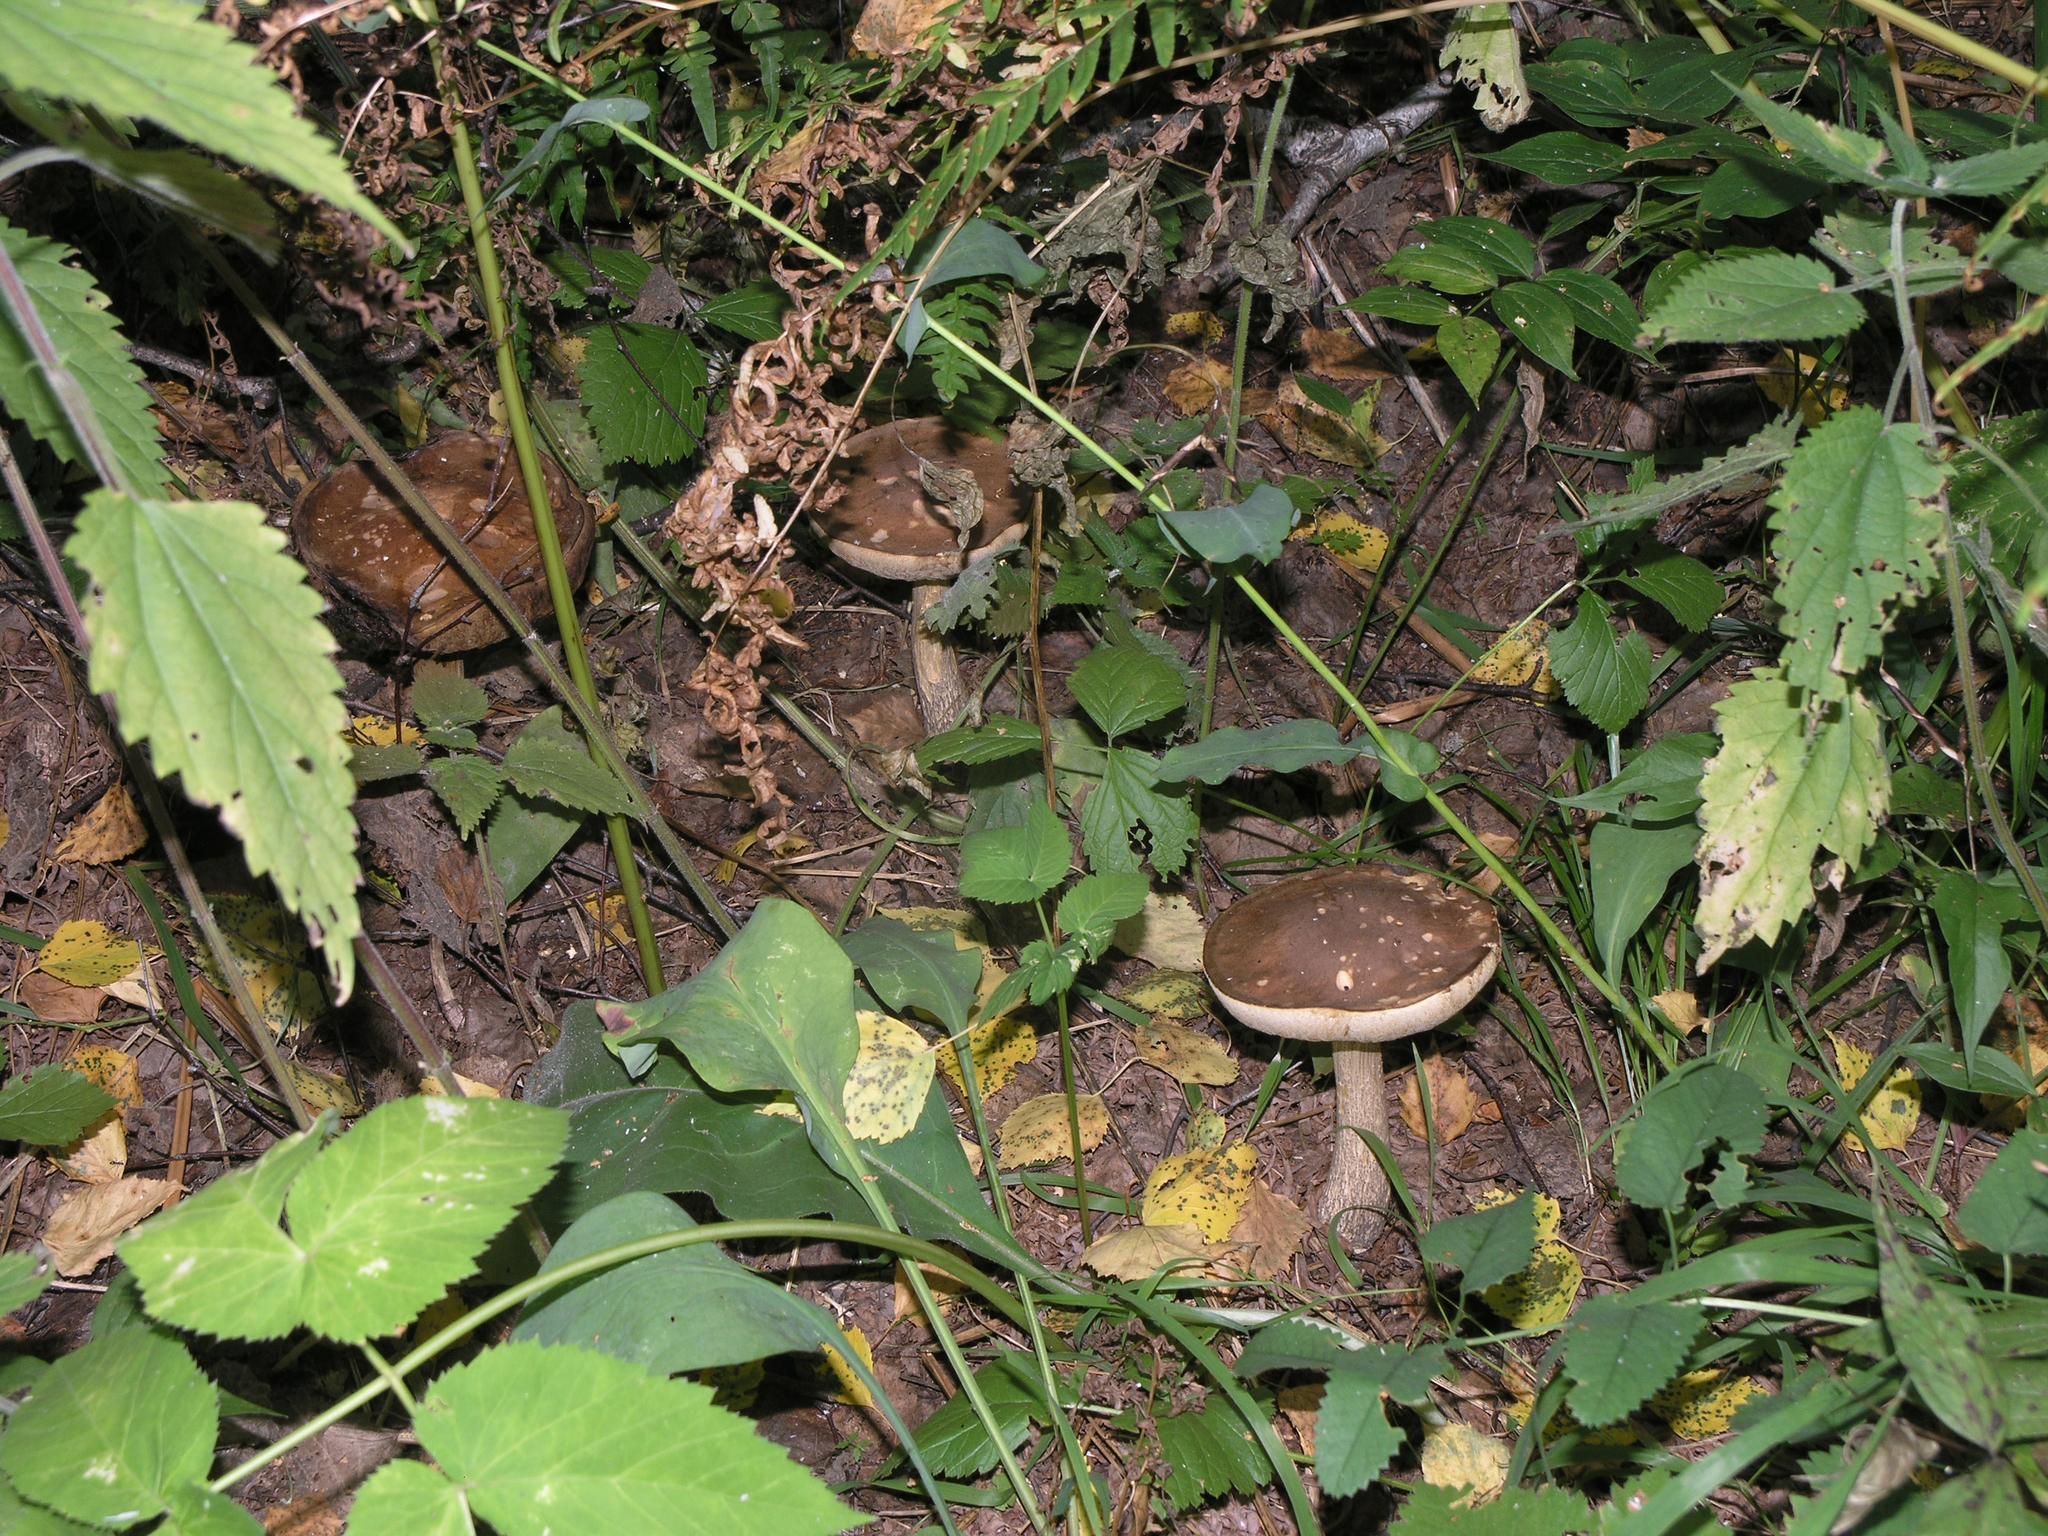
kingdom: Fungi
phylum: Basidiomycota
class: Agaricomycetes
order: Boletales
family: Boletaceae
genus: Leccinum
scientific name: Leccinum scabrum
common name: Blushing bolete
